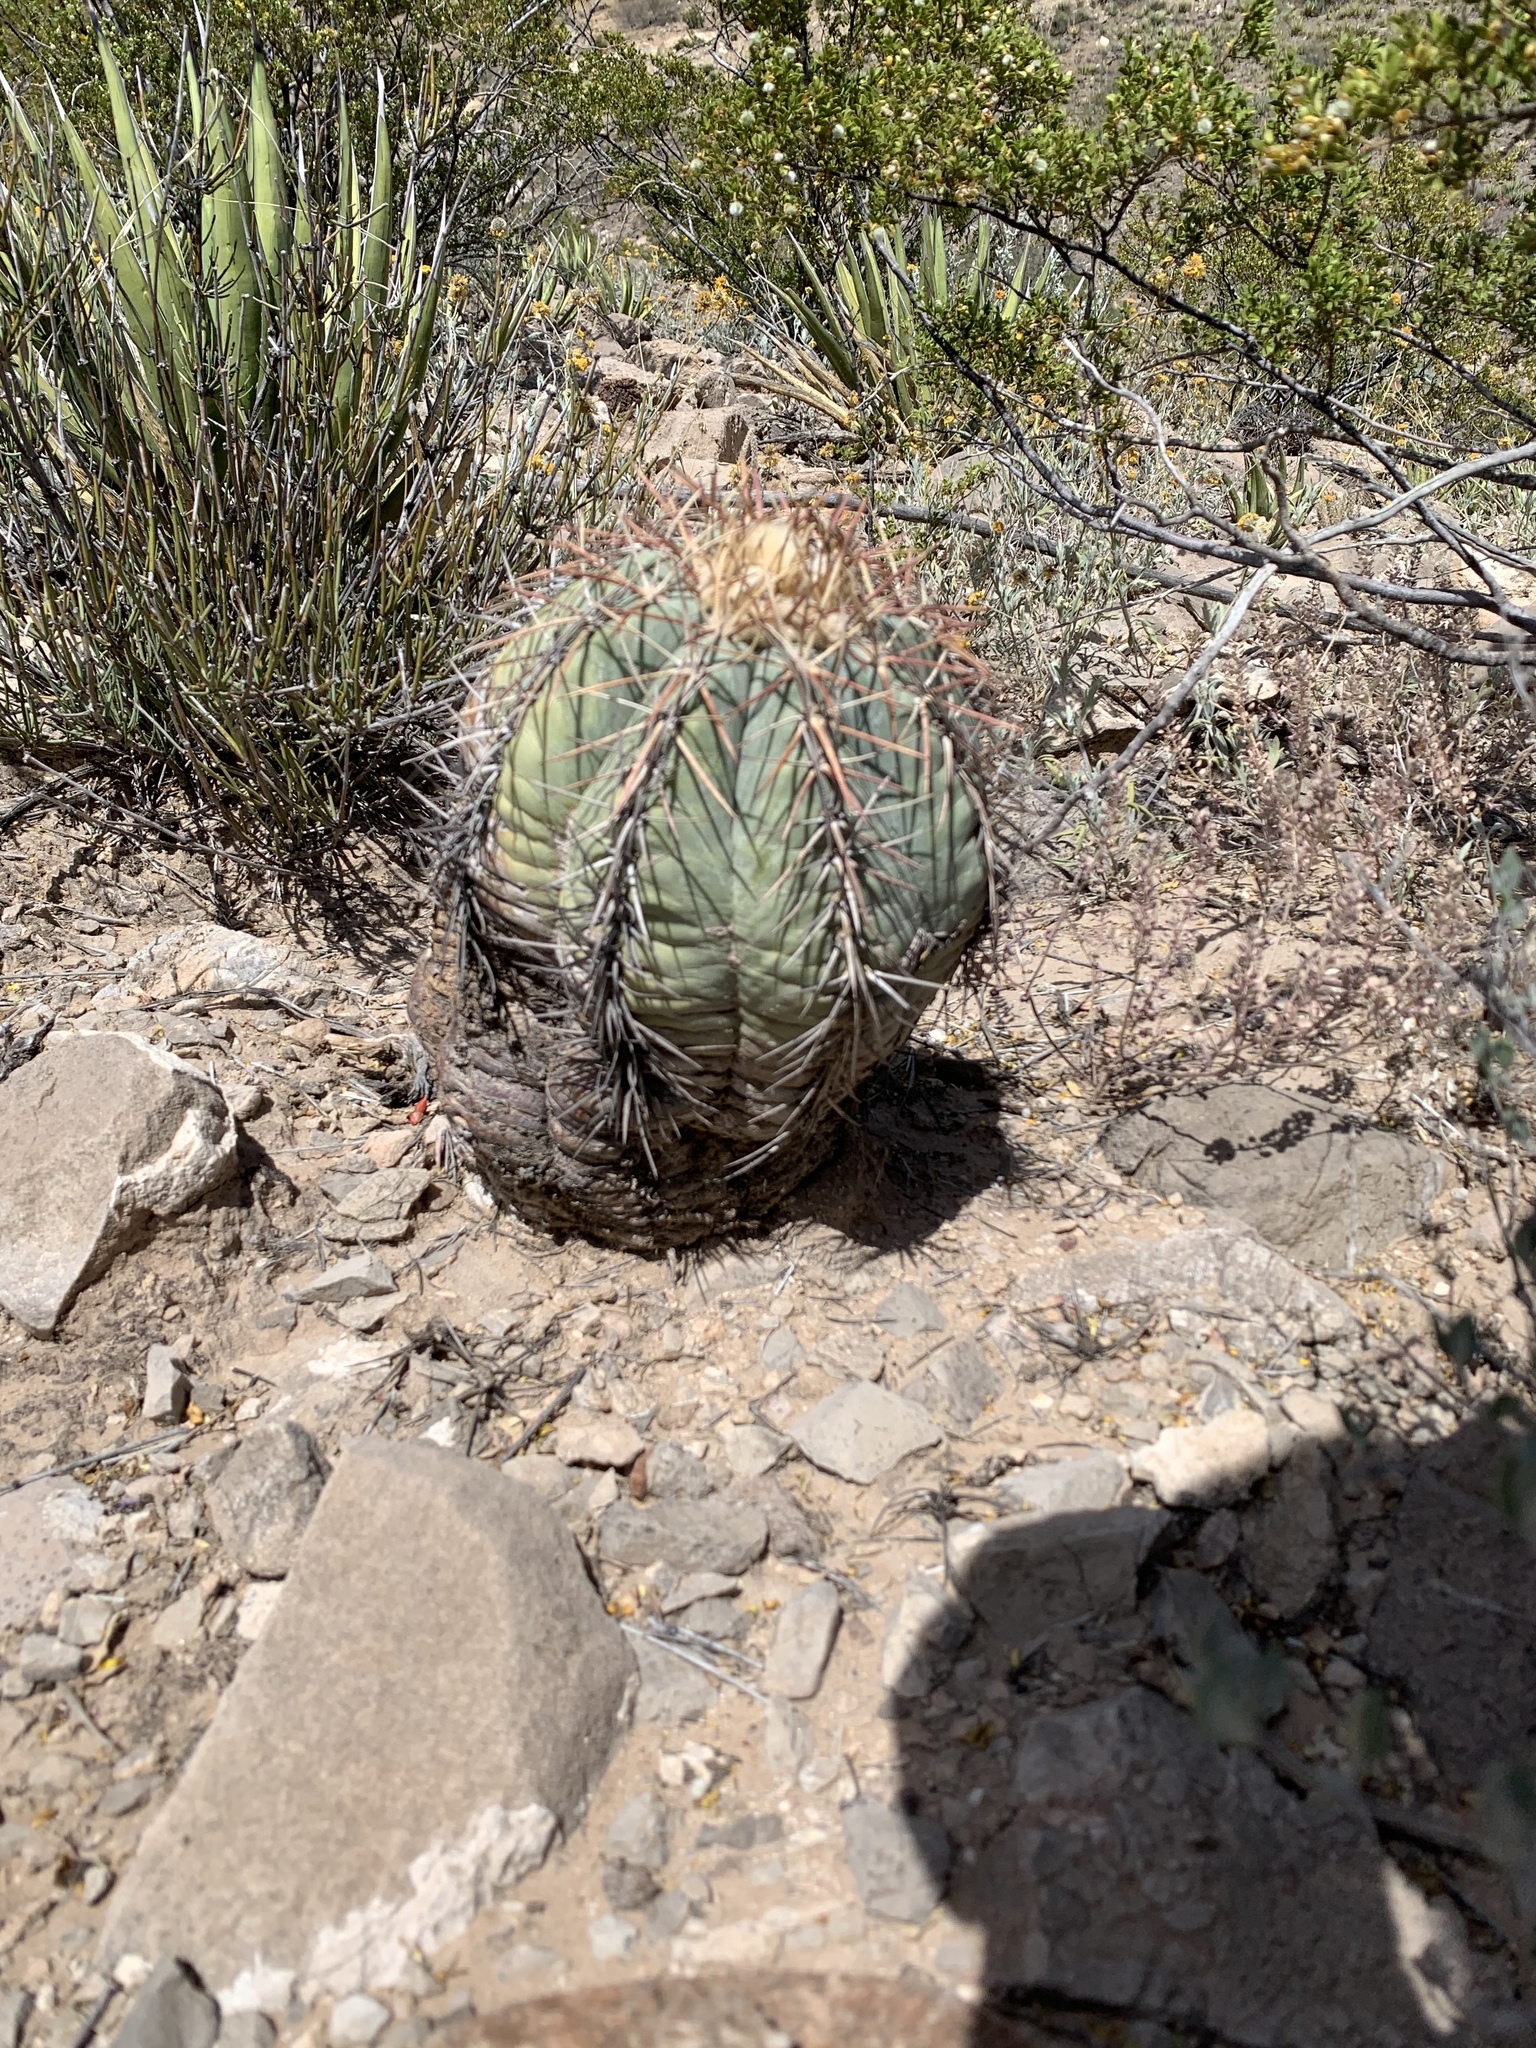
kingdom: Plantae
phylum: Tracheophyta
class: Magnoliopsida
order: Caryophyllales
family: Cactaceae
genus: Echinocactus
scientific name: Echinocactus horizonthalonius
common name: Devilshead
